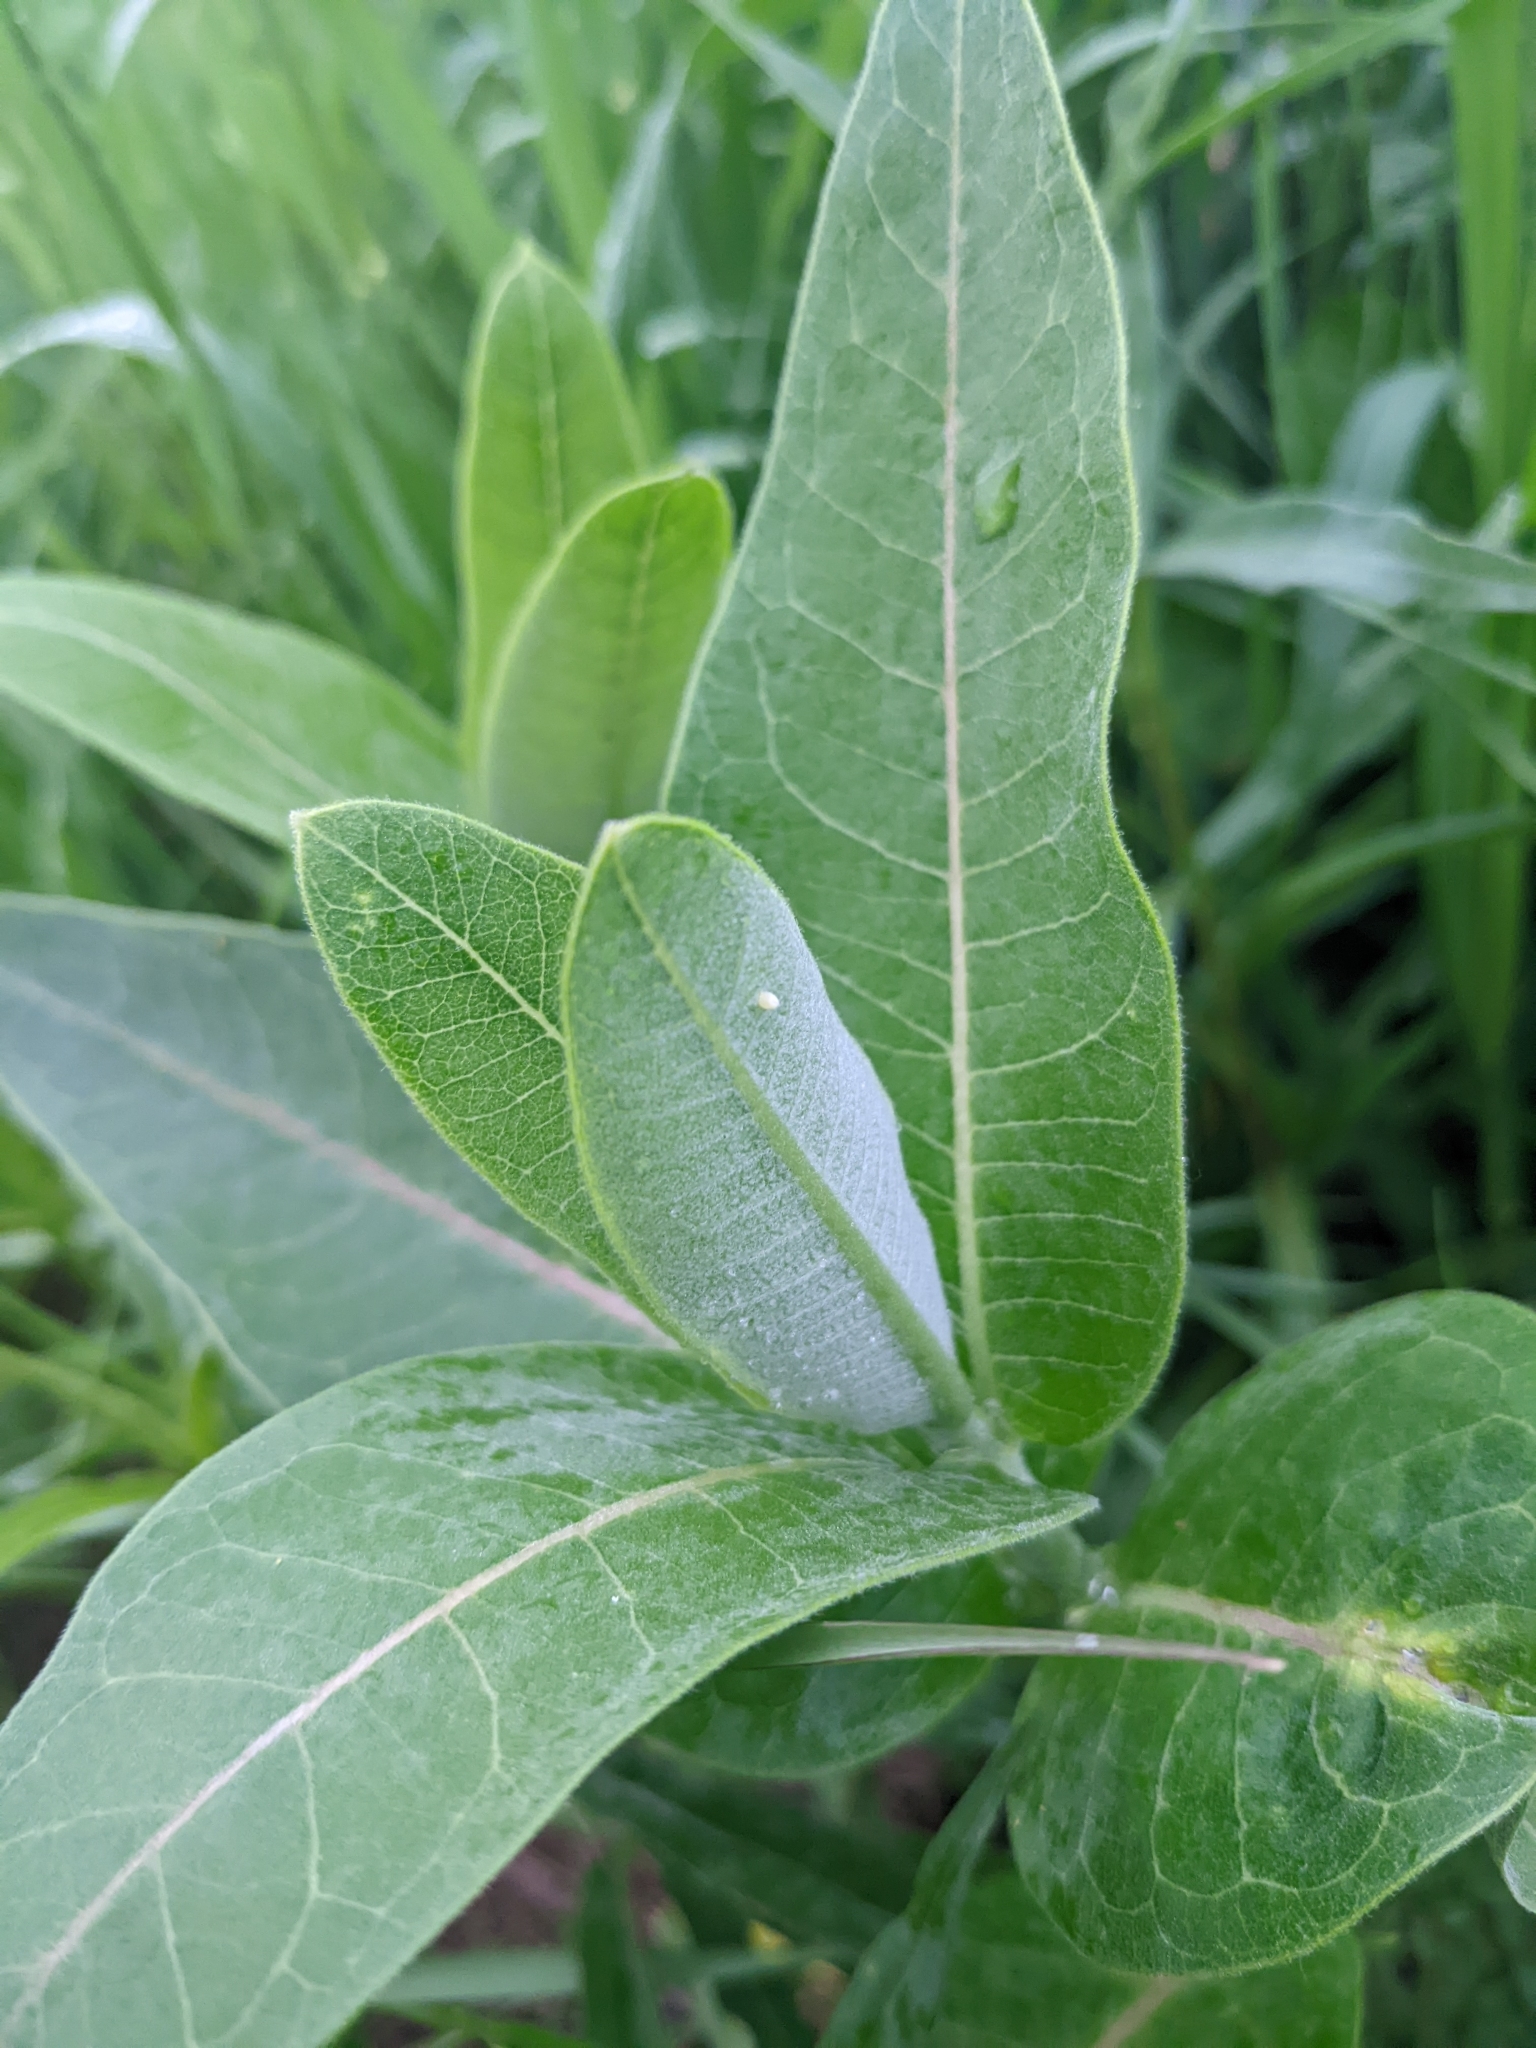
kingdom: Animalia
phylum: Arthropoda
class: Insecta
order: Lepidoptera
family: Nymphalidae
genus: Danaus
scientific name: Danaus plexippus
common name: Monarch
